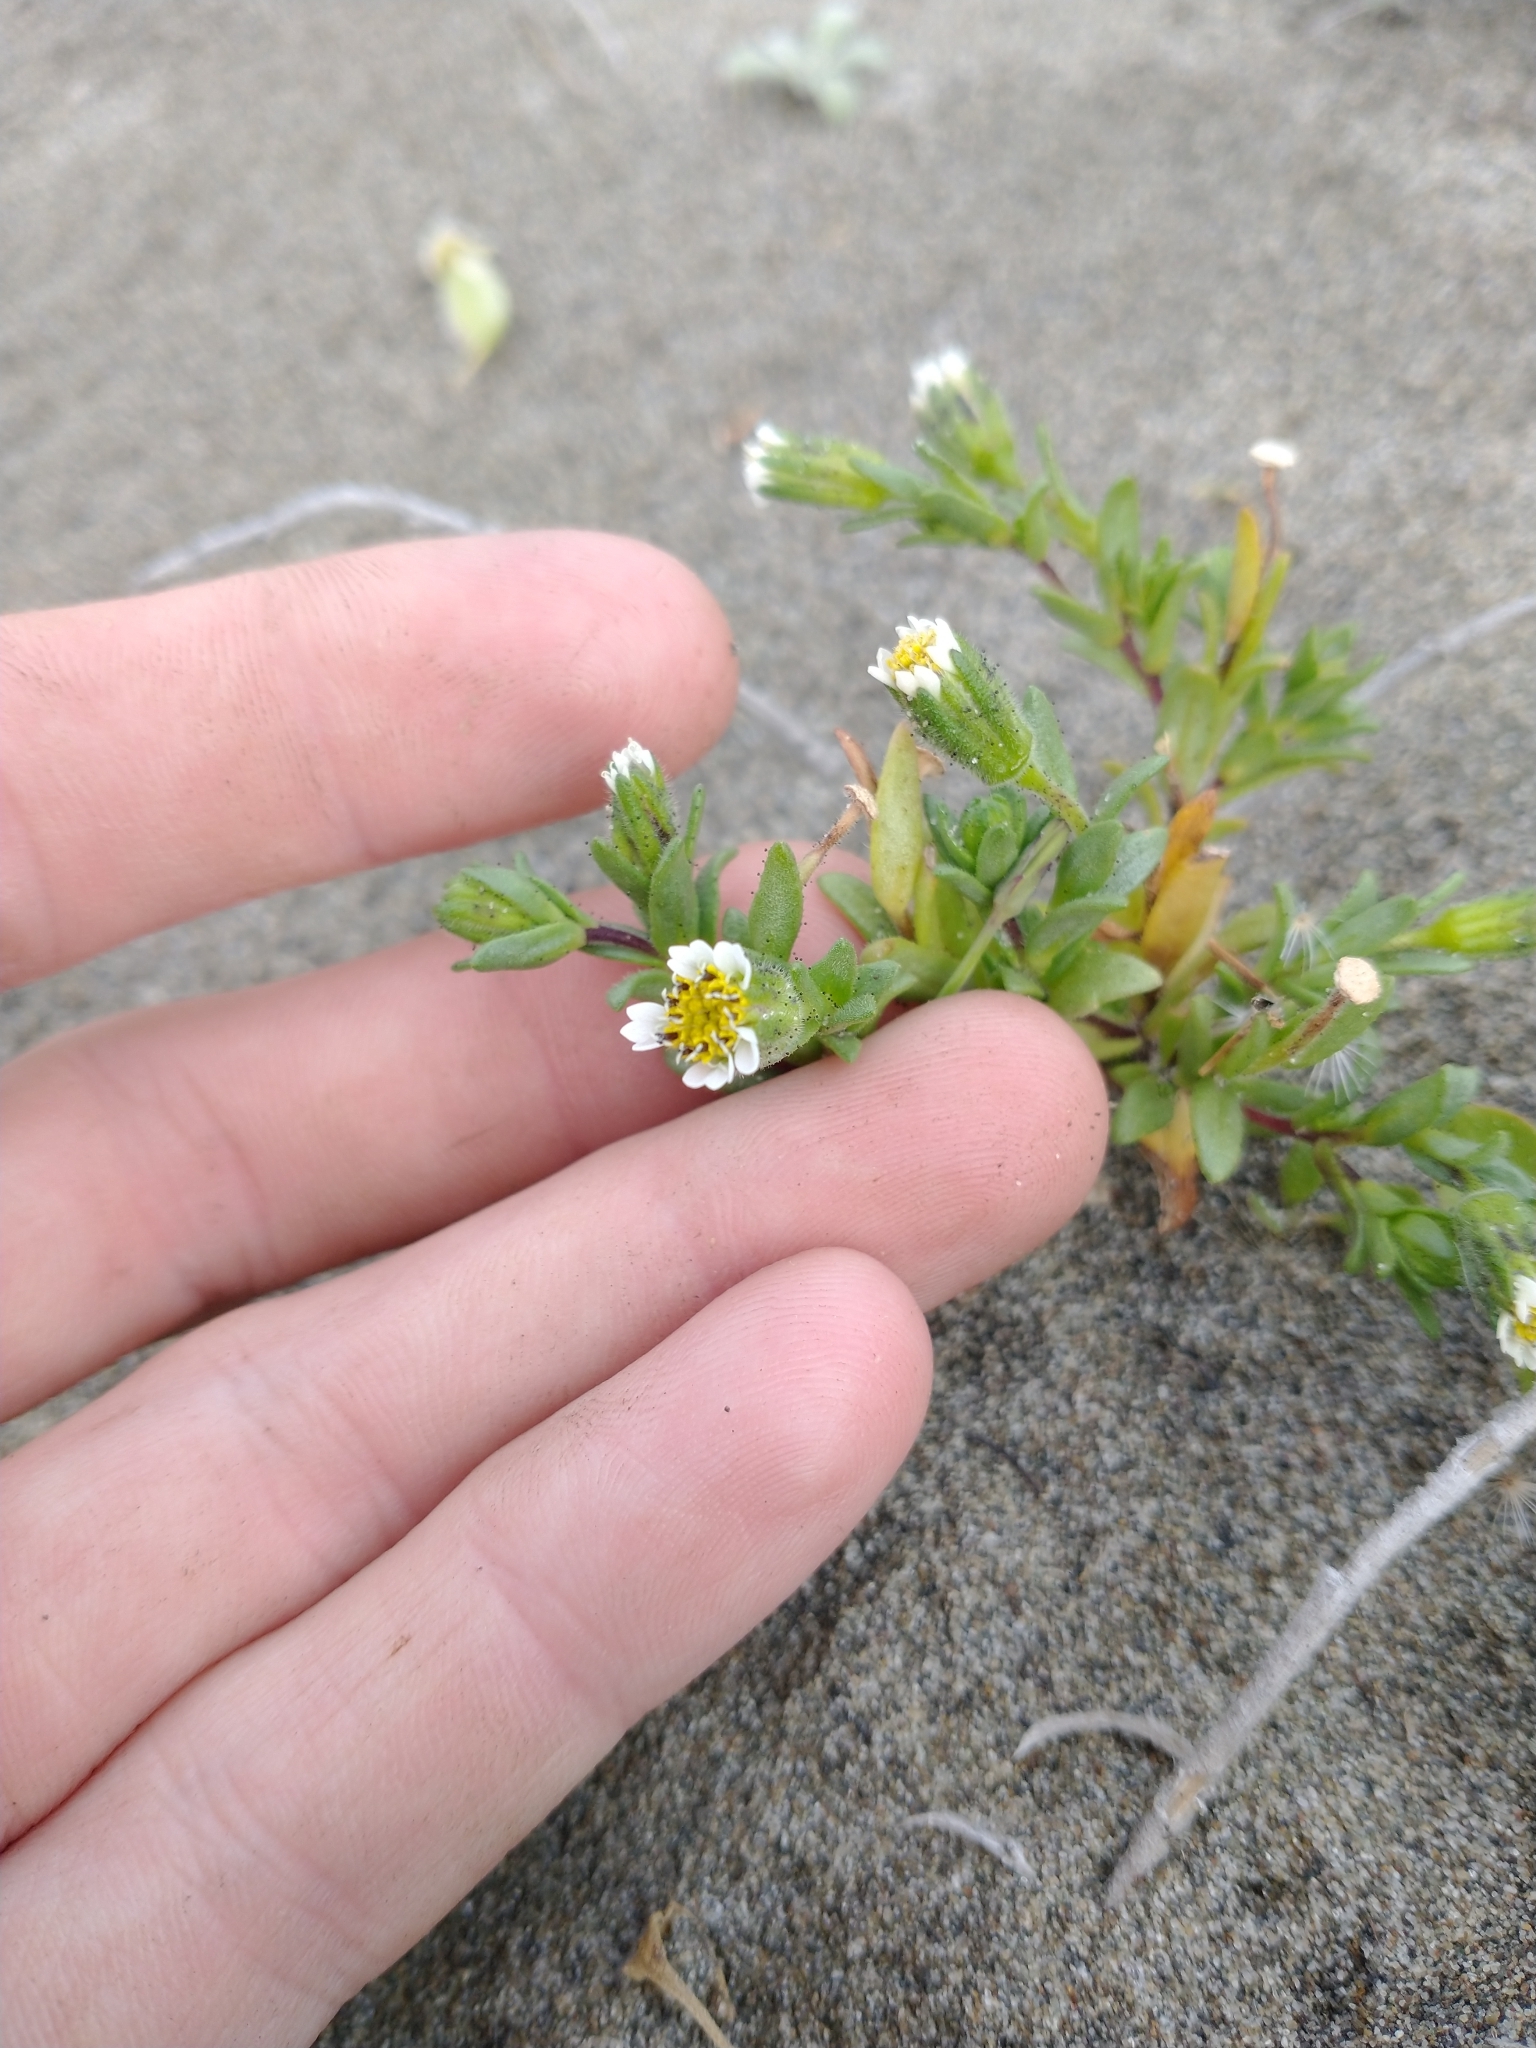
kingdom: Plantae
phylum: Tracheophyta
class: Magnoliopsida
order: Asterales
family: Asteraceae
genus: Layia
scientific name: Layia carnosa
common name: Beach layia
